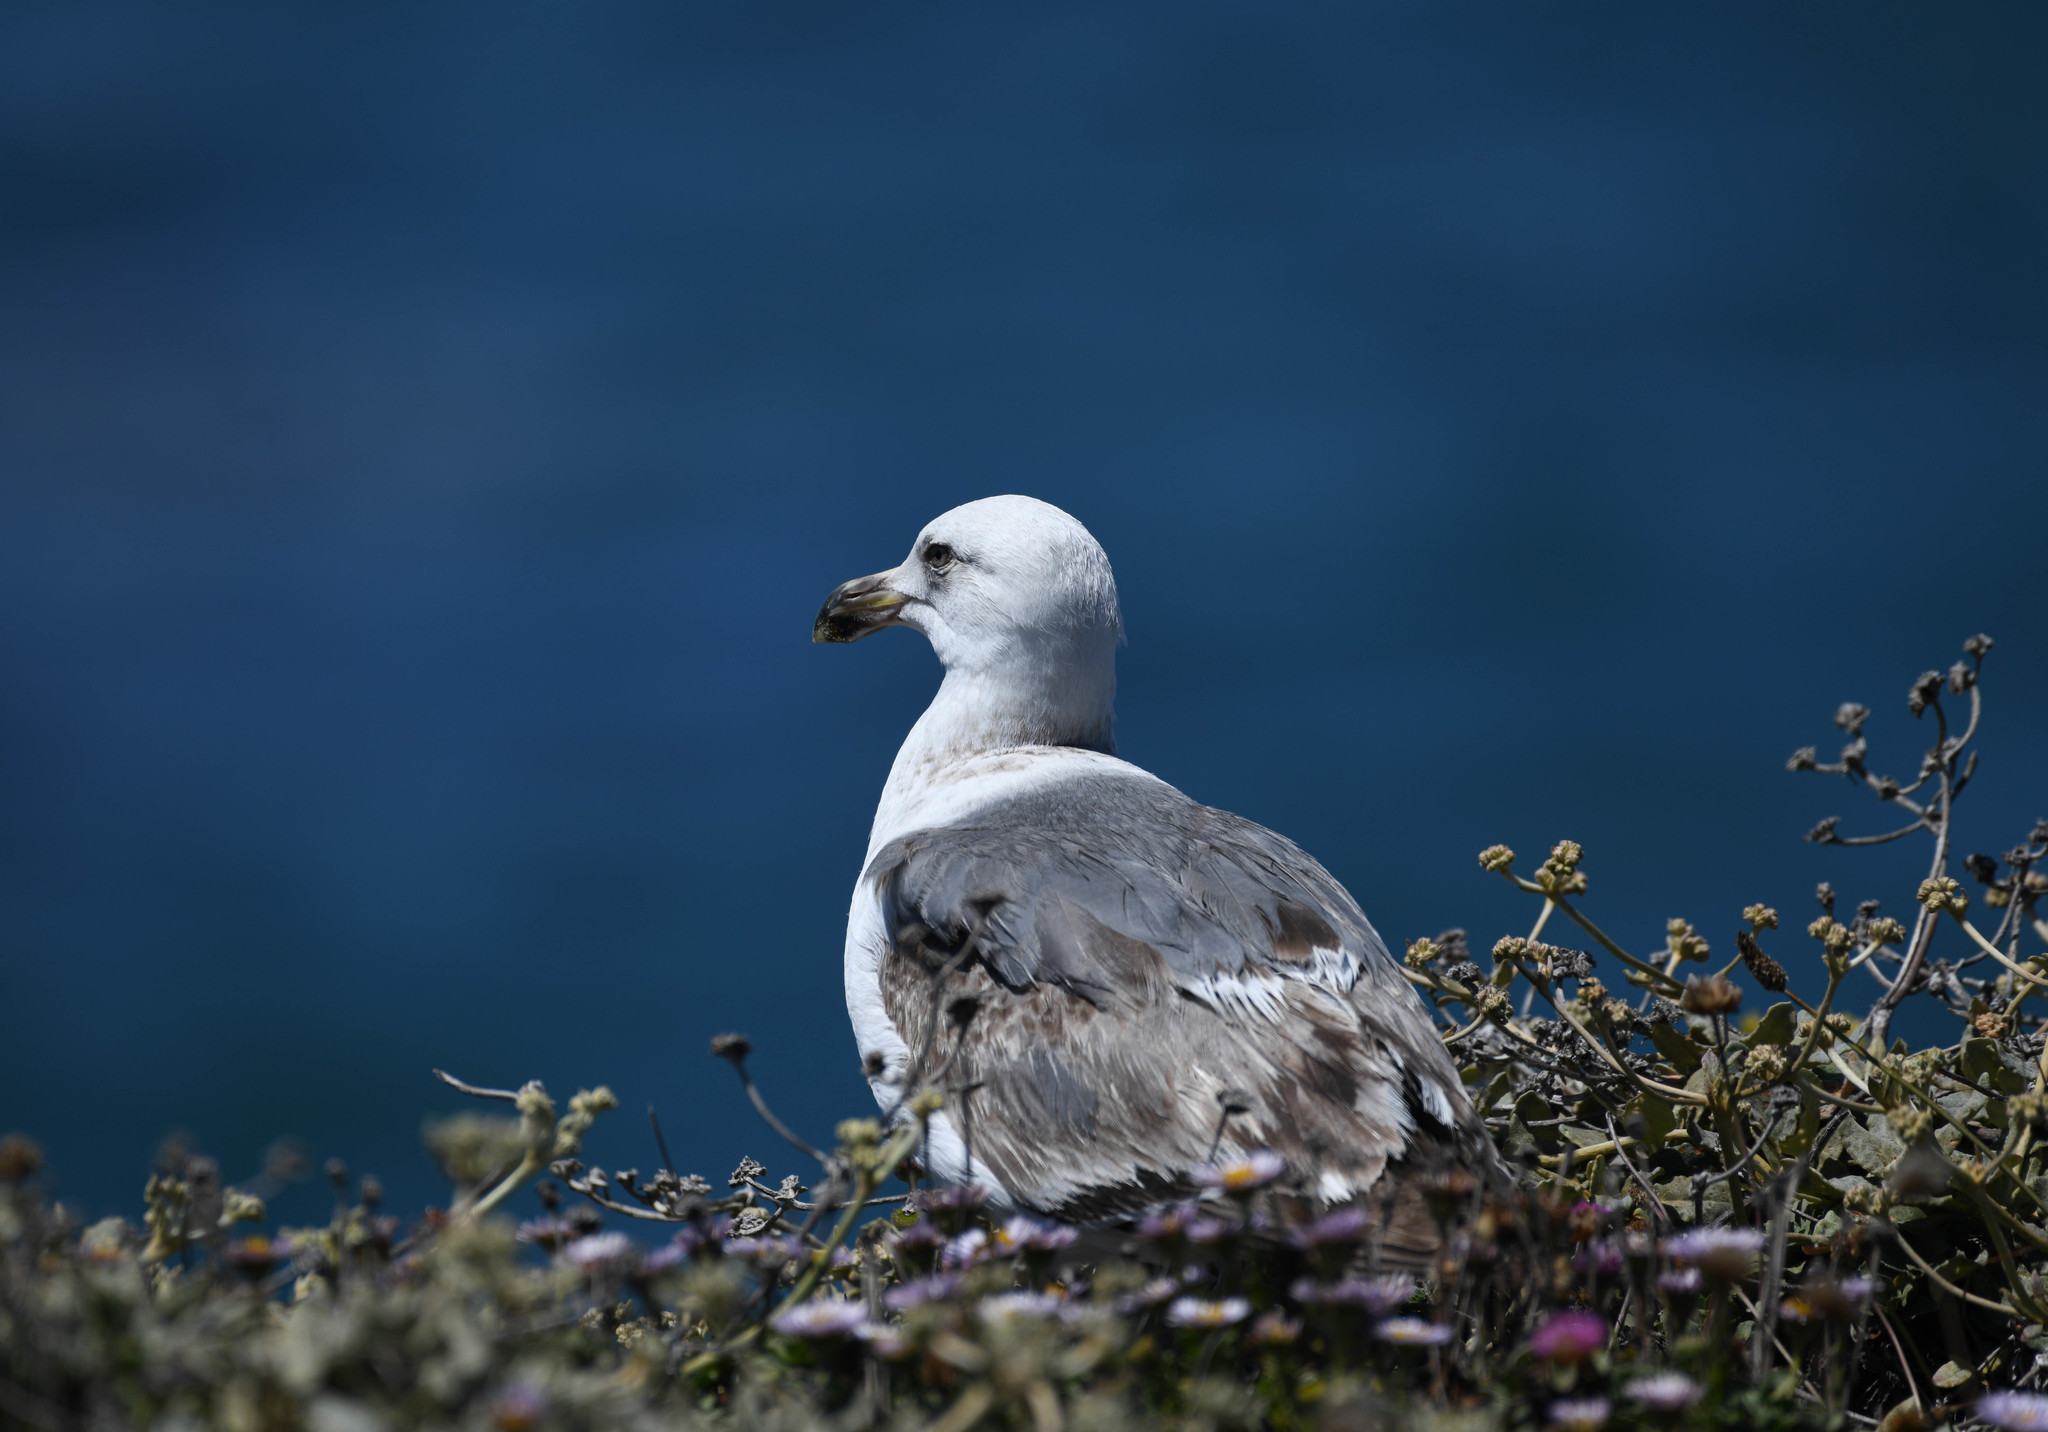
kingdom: Animalia
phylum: Chordata
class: Aves
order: Charadriiformes
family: Laridae
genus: Larus
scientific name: Larus occidentalis
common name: Western gull
